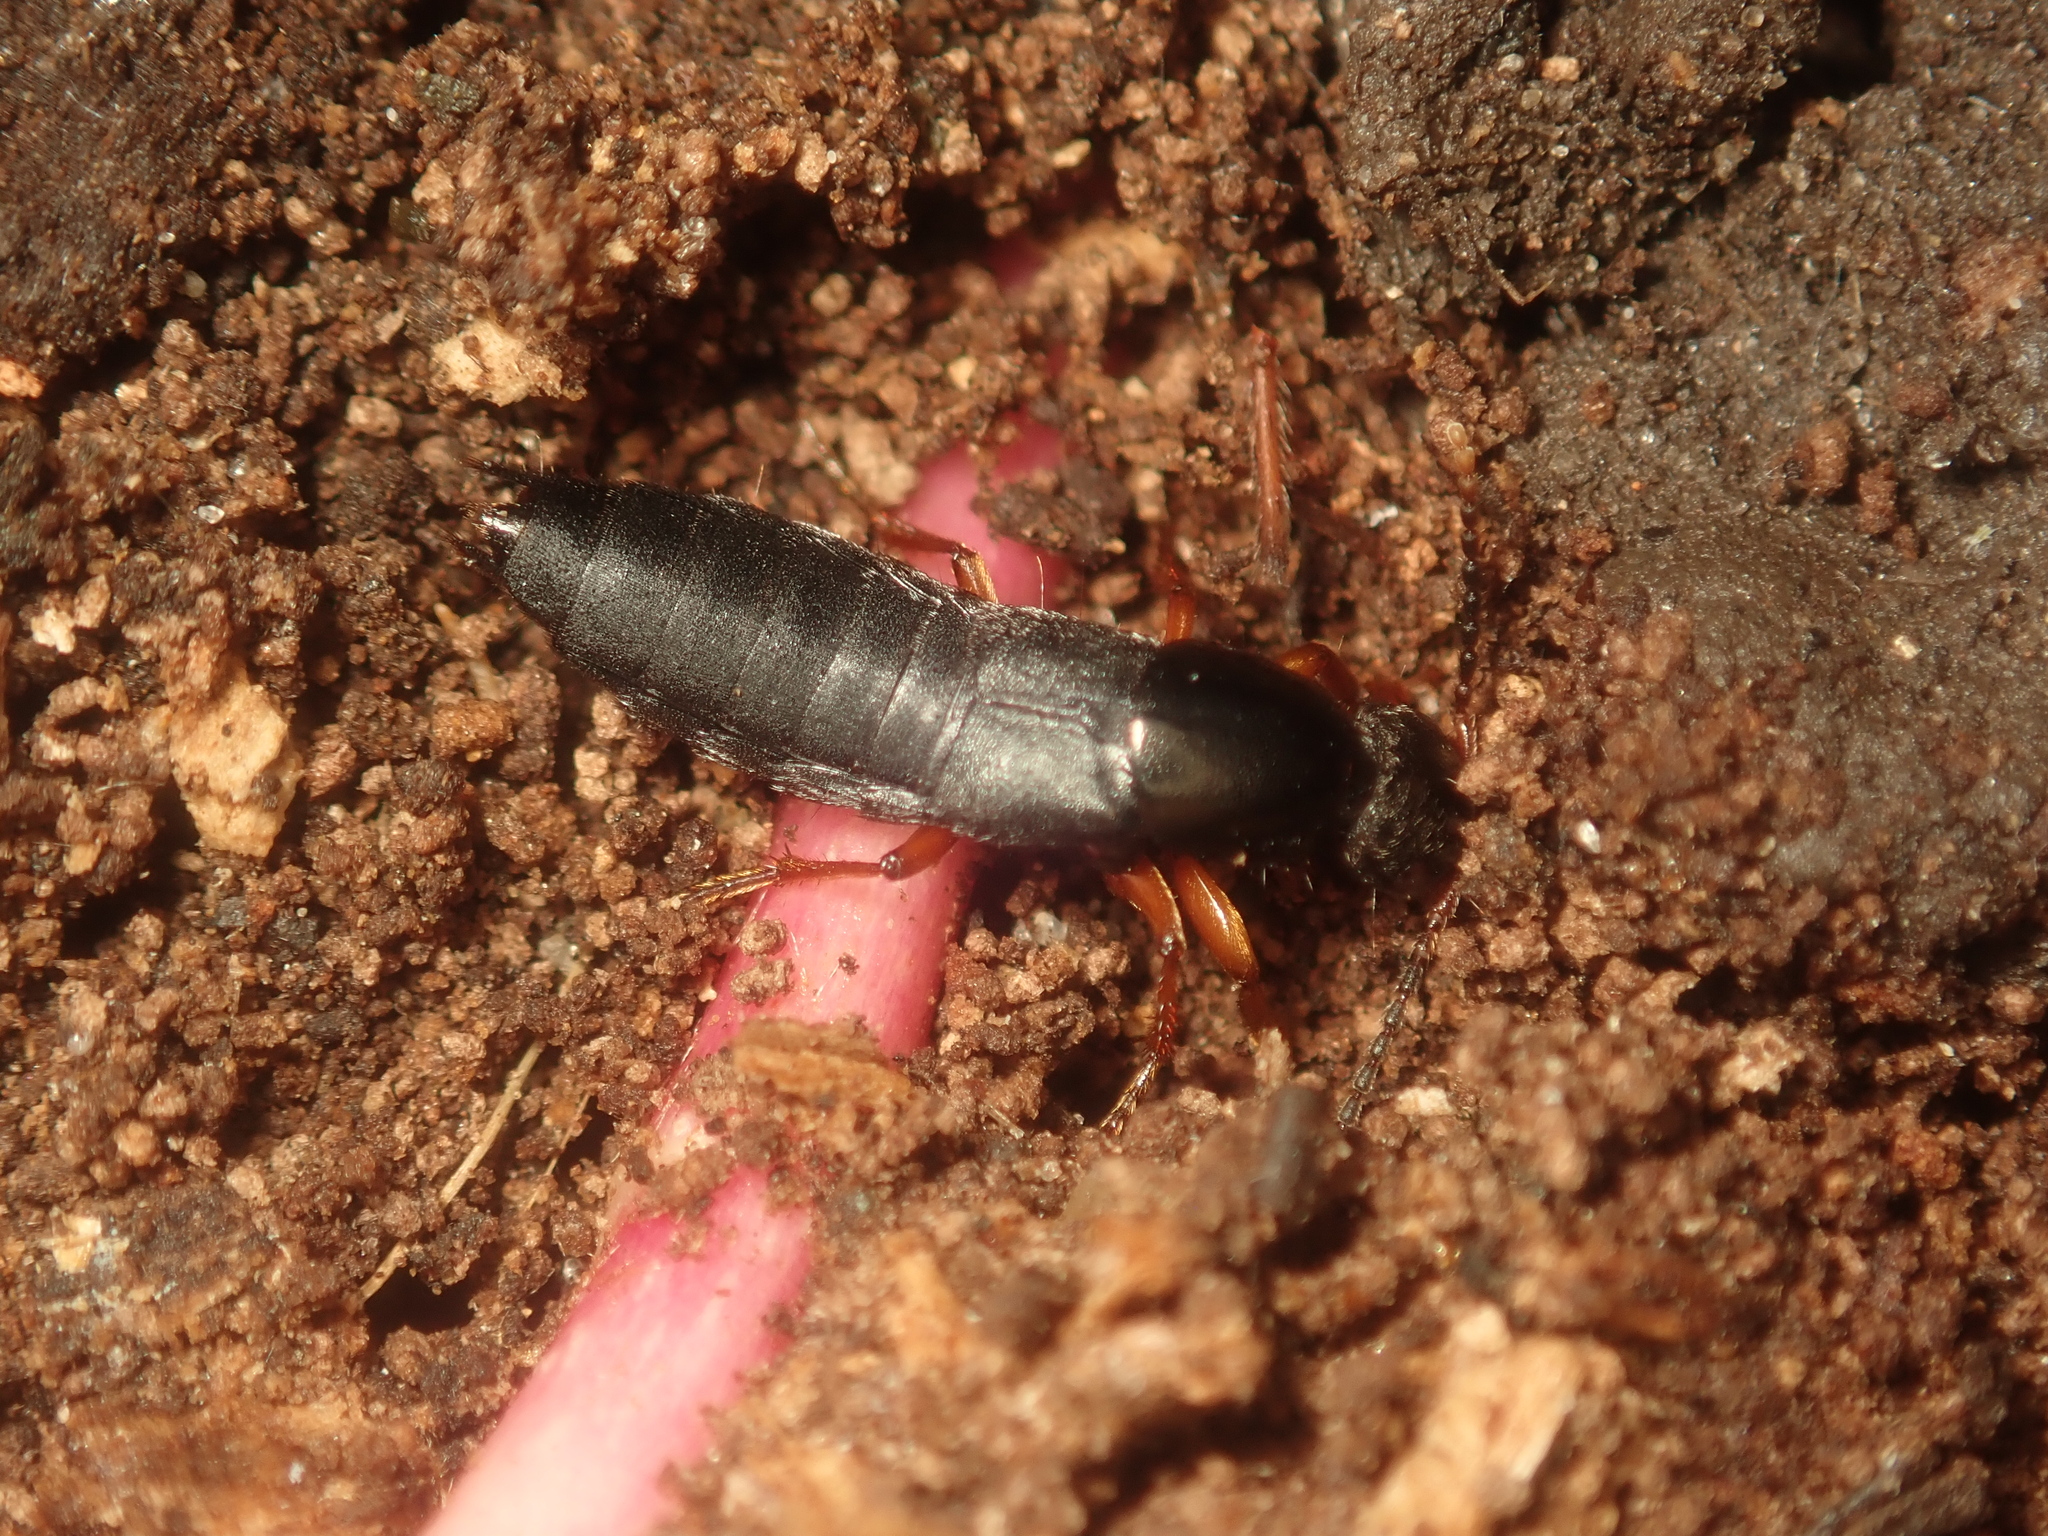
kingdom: Animalia
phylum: Arthropoda
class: Insecta
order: Coleoptera
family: Staphylinidae
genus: Ocypus
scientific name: Ocypus brunnipes
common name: Rove beetle
